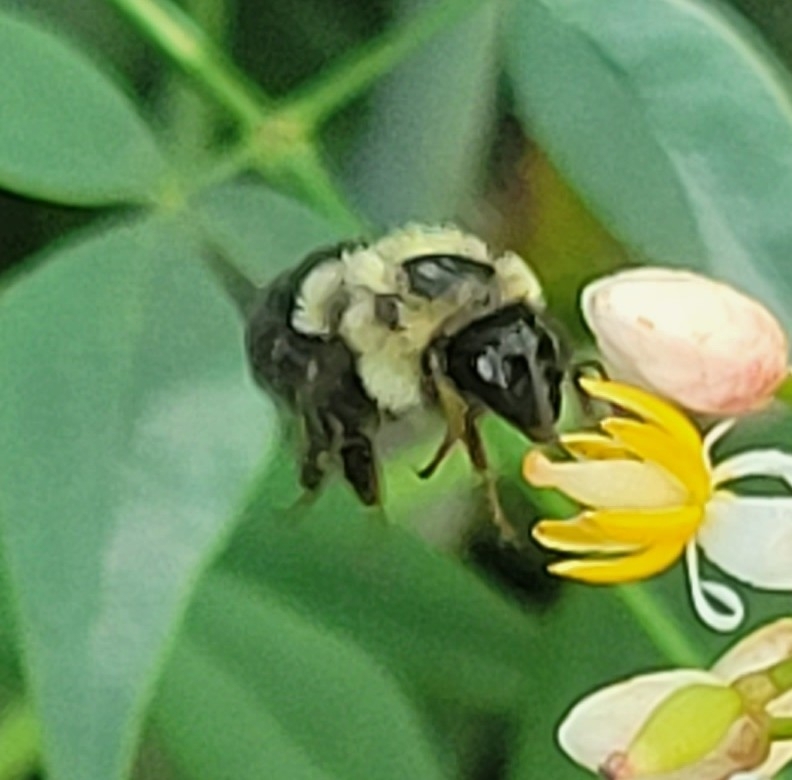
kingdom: Animalia
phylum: Arthropoda
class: Insecta
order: Hymenoptera
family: Apidae
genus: Bombus
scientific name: Bombus impatiens
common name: Common eastern bumble bee
